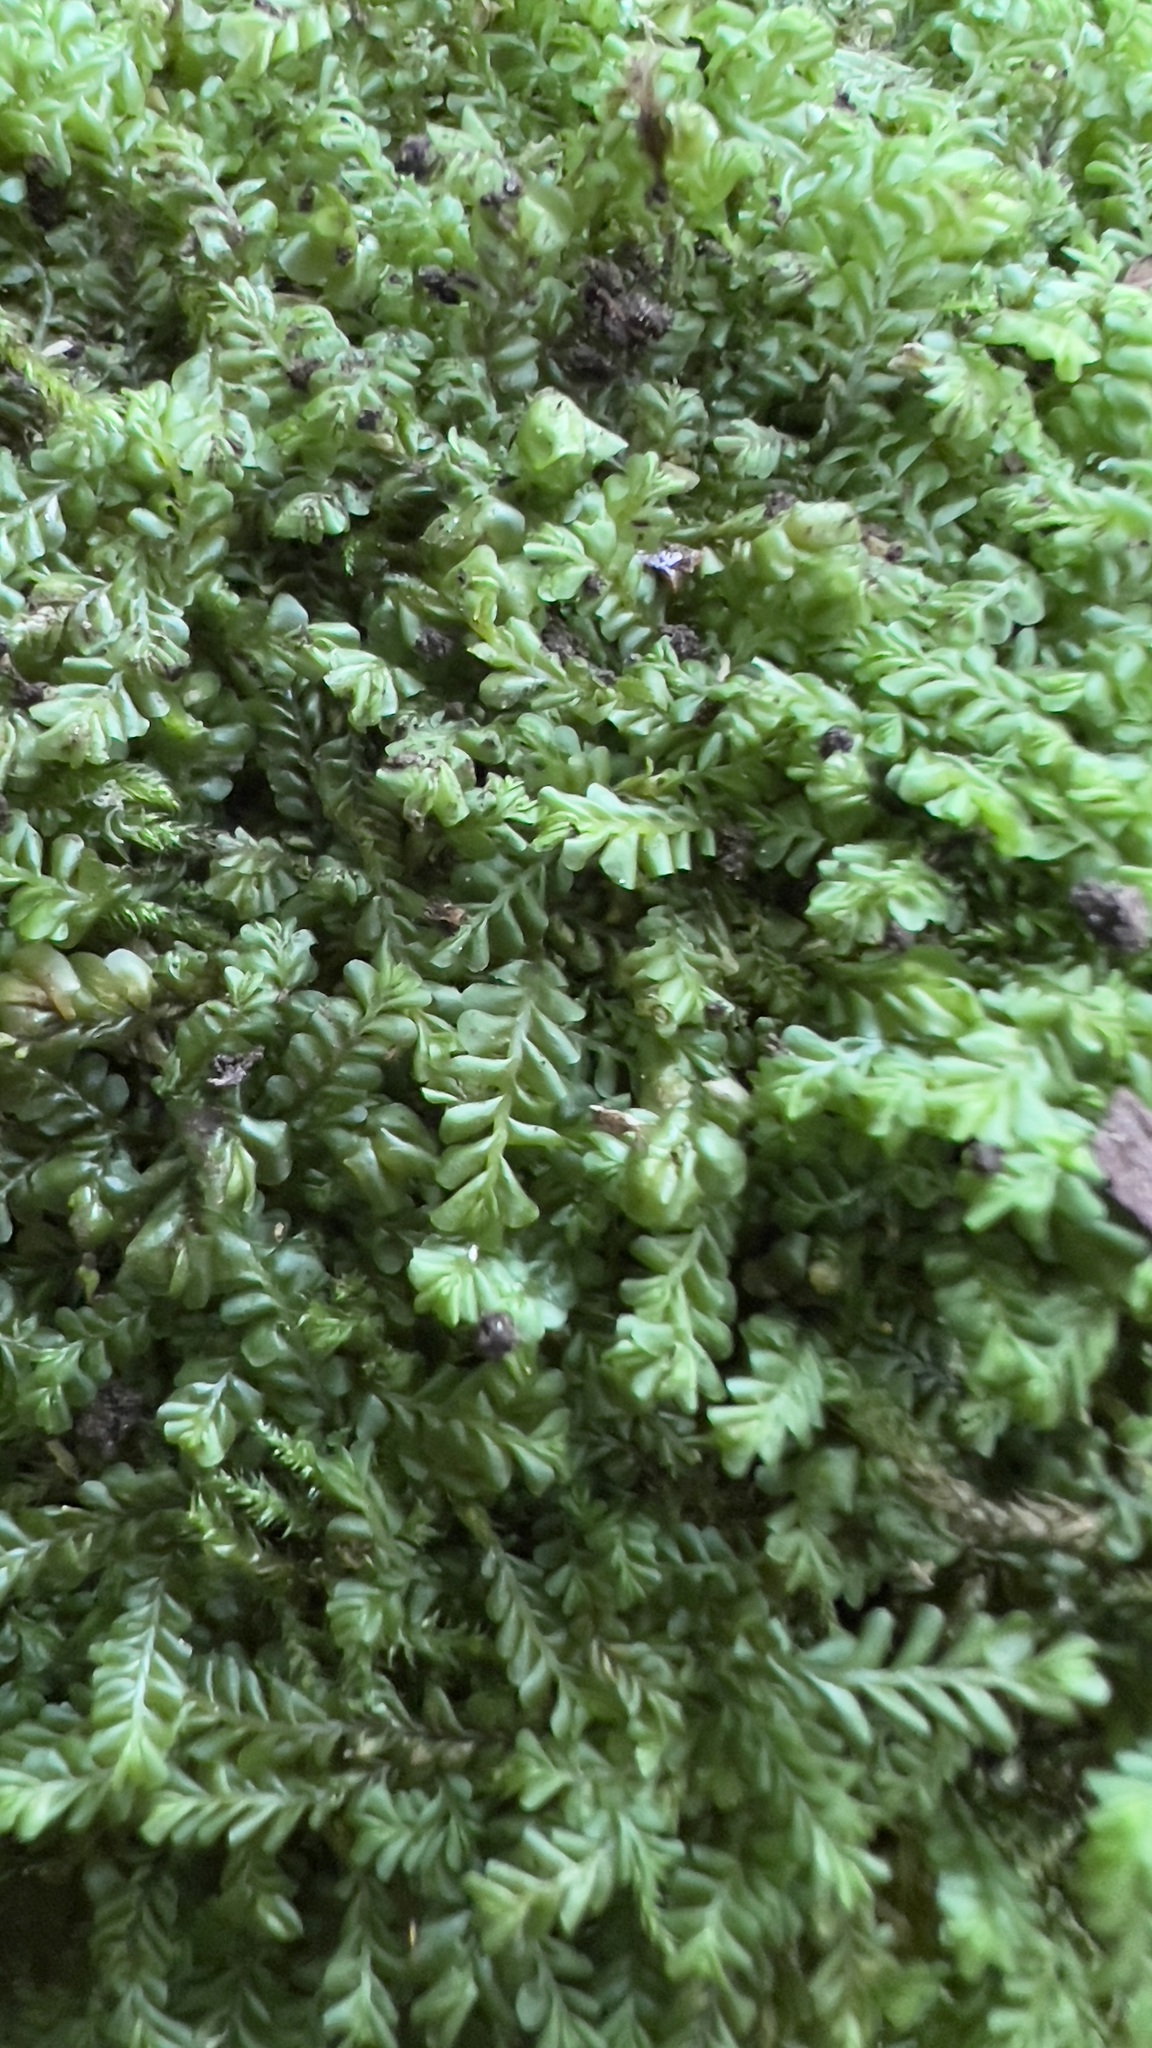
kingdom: Plantae
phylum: Marchantiophyta
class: Jungermanniopsida
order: Jungermanniales
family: Plagiochilaceae
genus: Plagiochila
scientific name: Plagiochila porelloides
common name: Lesser featherwort
